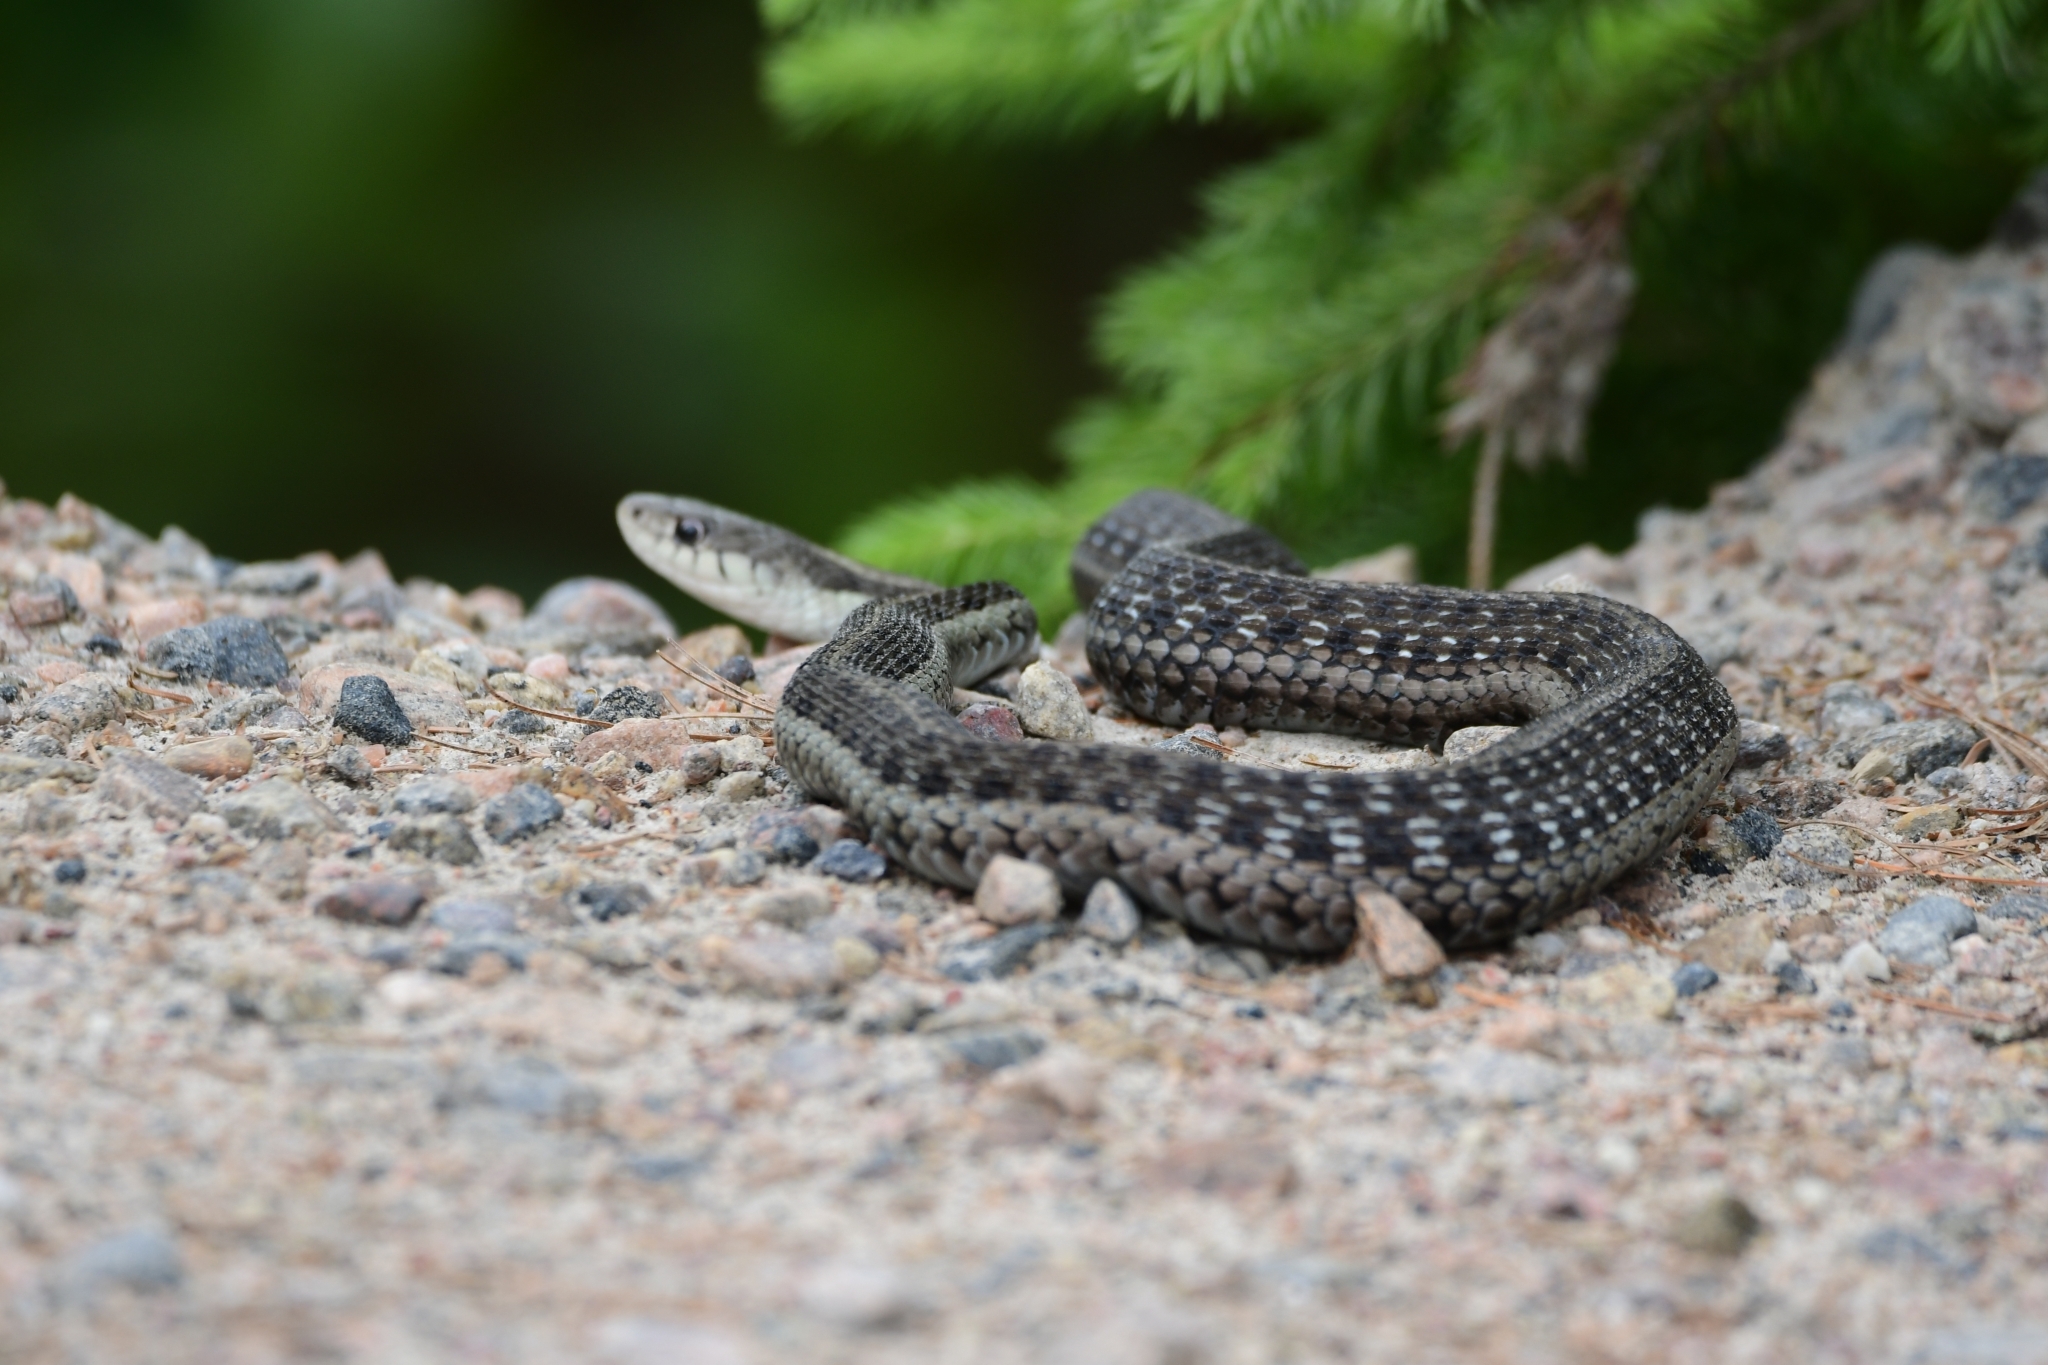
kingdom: Animalia
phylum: Chordata
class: Squamata
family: Colubridae
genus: Thamnophis
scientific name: Thamnophis sirtalis
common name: Common garter snake
